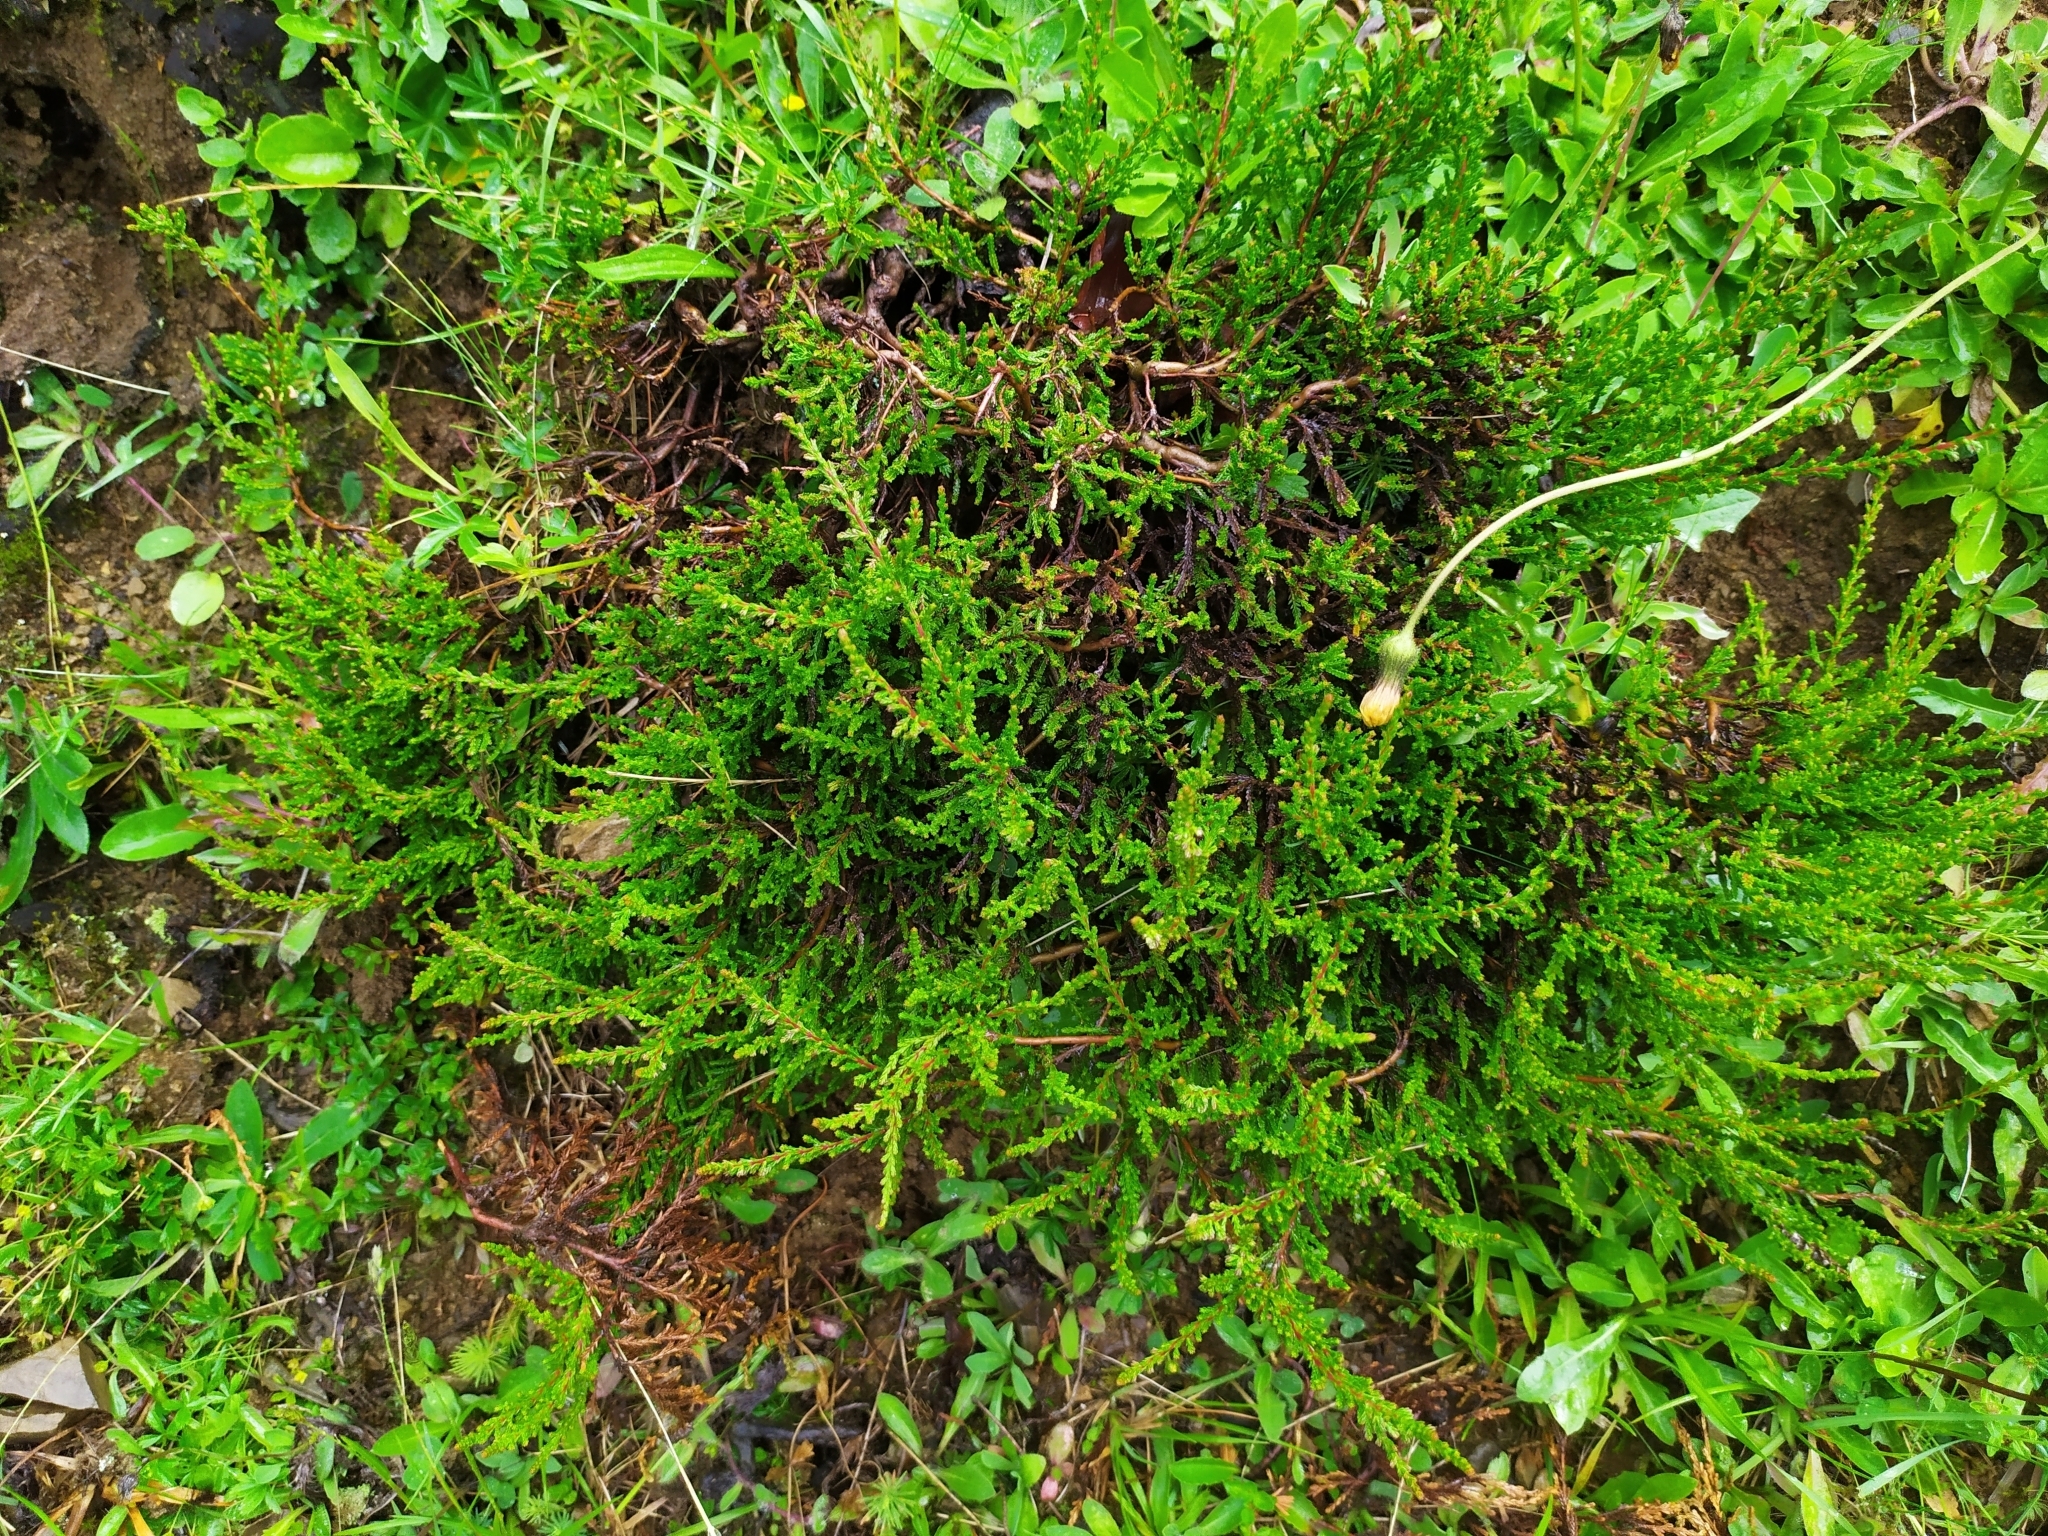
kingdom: Plantae
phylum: Tracheophyta
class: Magnoliopsida
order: Ericales
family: Ericaceae
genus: Calluna
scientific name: Calluna vulgaris
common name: Heather
